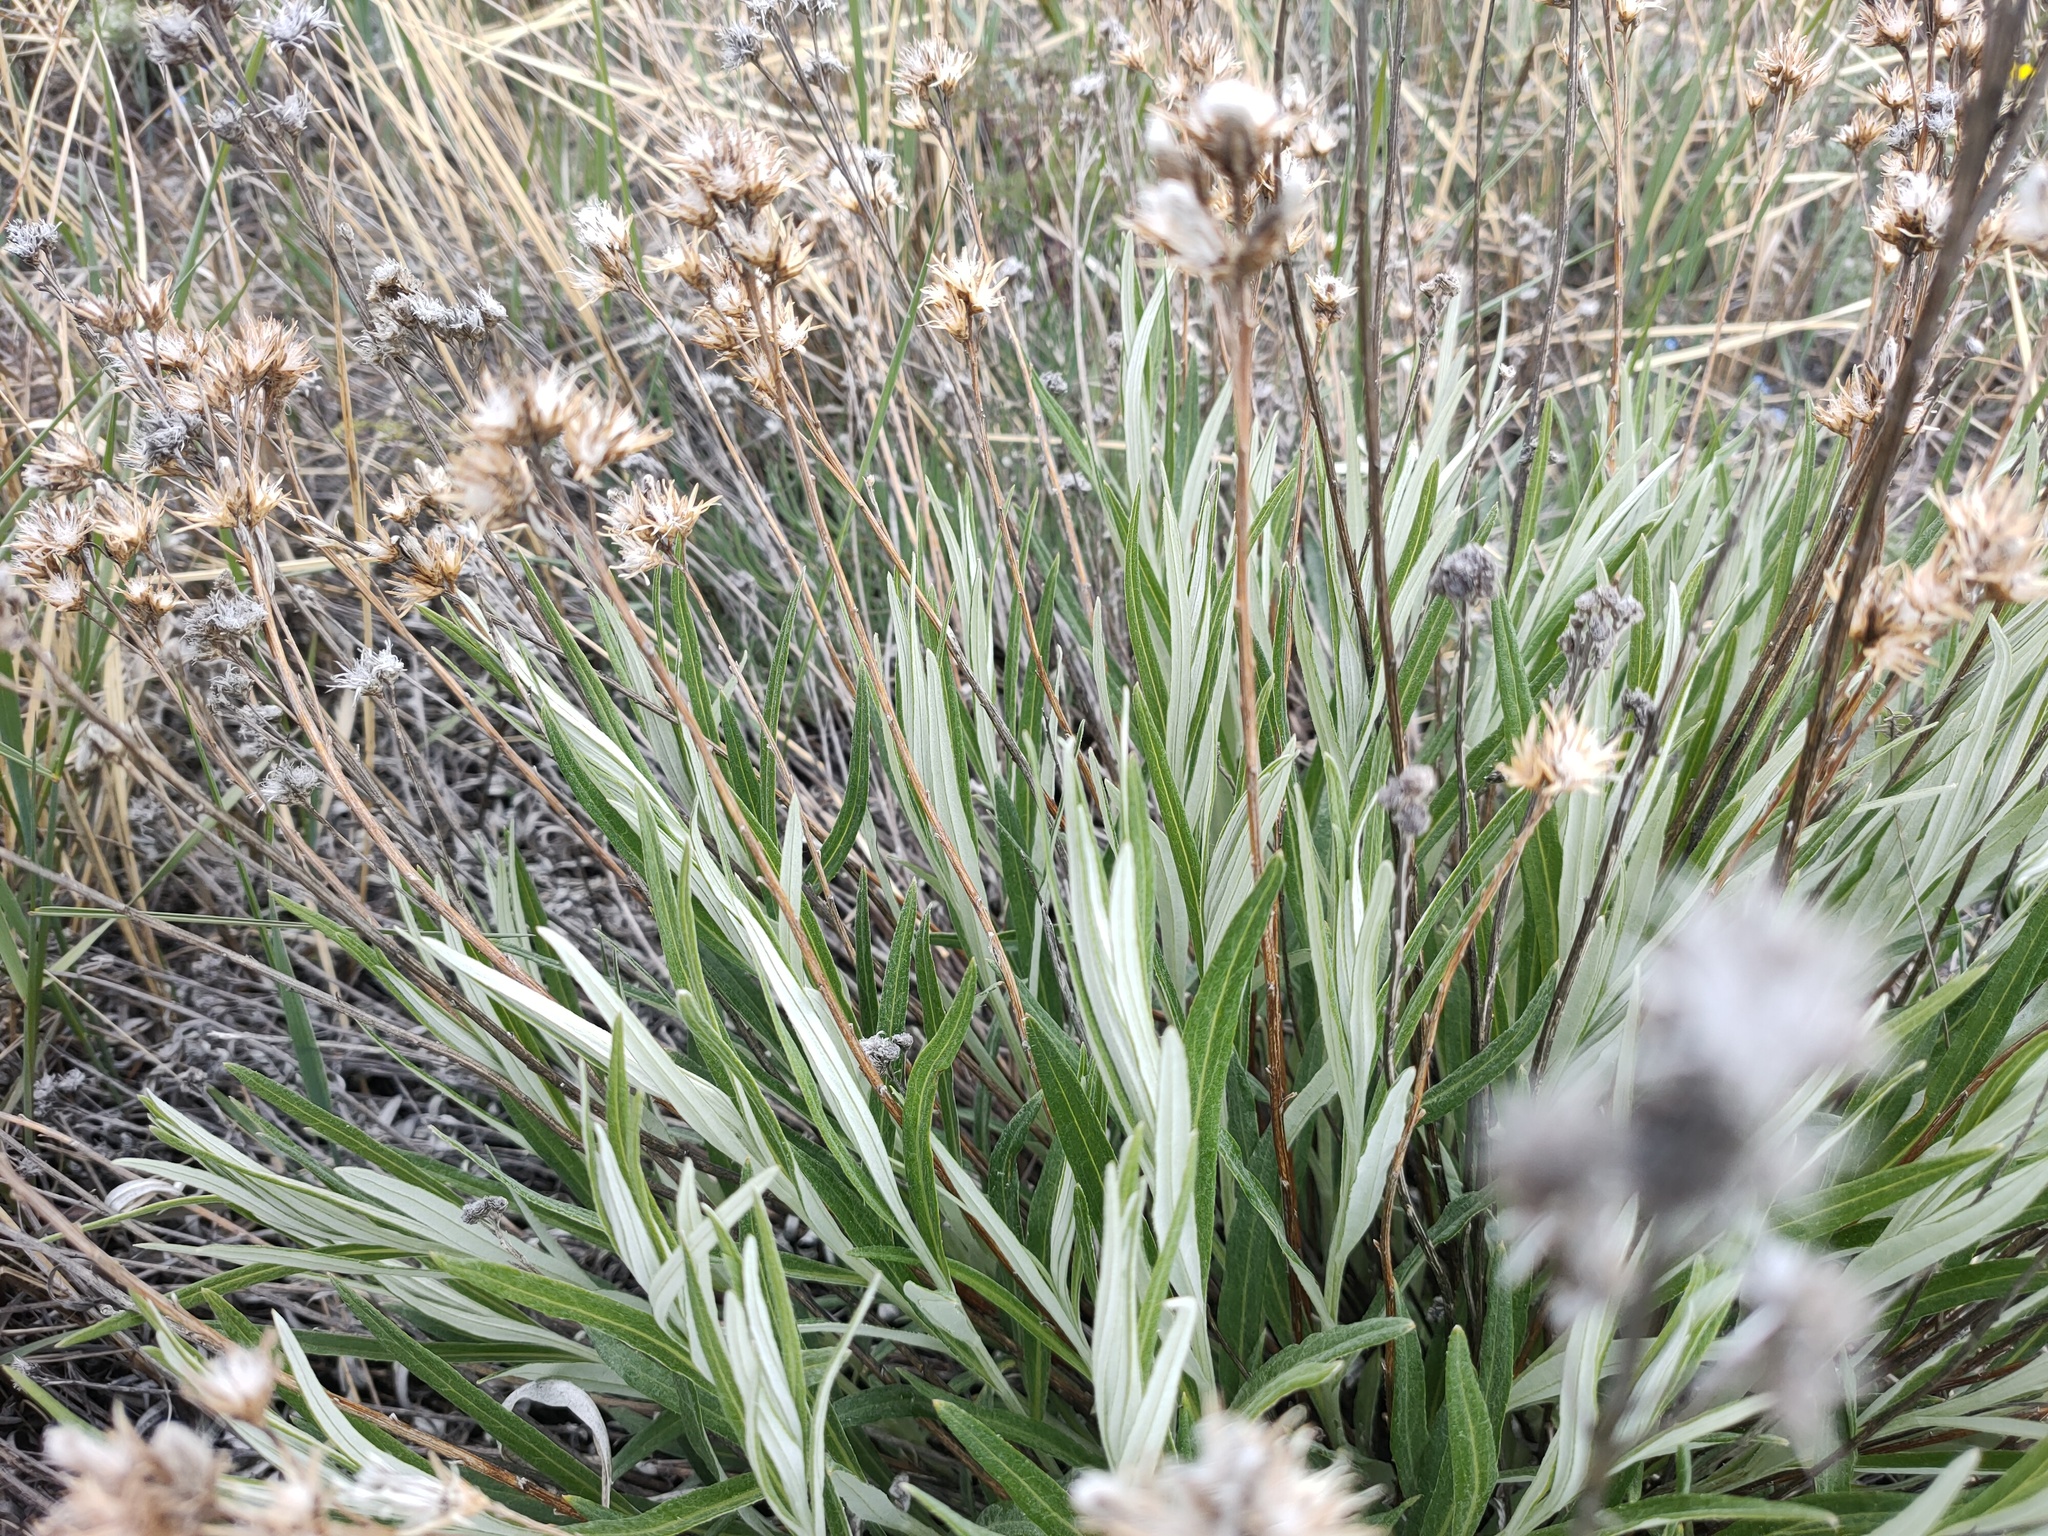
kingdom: Plantae
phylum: Tracheophyta
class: Magnoliopsida
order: Asterales
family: Asteraceae
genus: Saussurea
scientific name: Saussurea salicifolia
